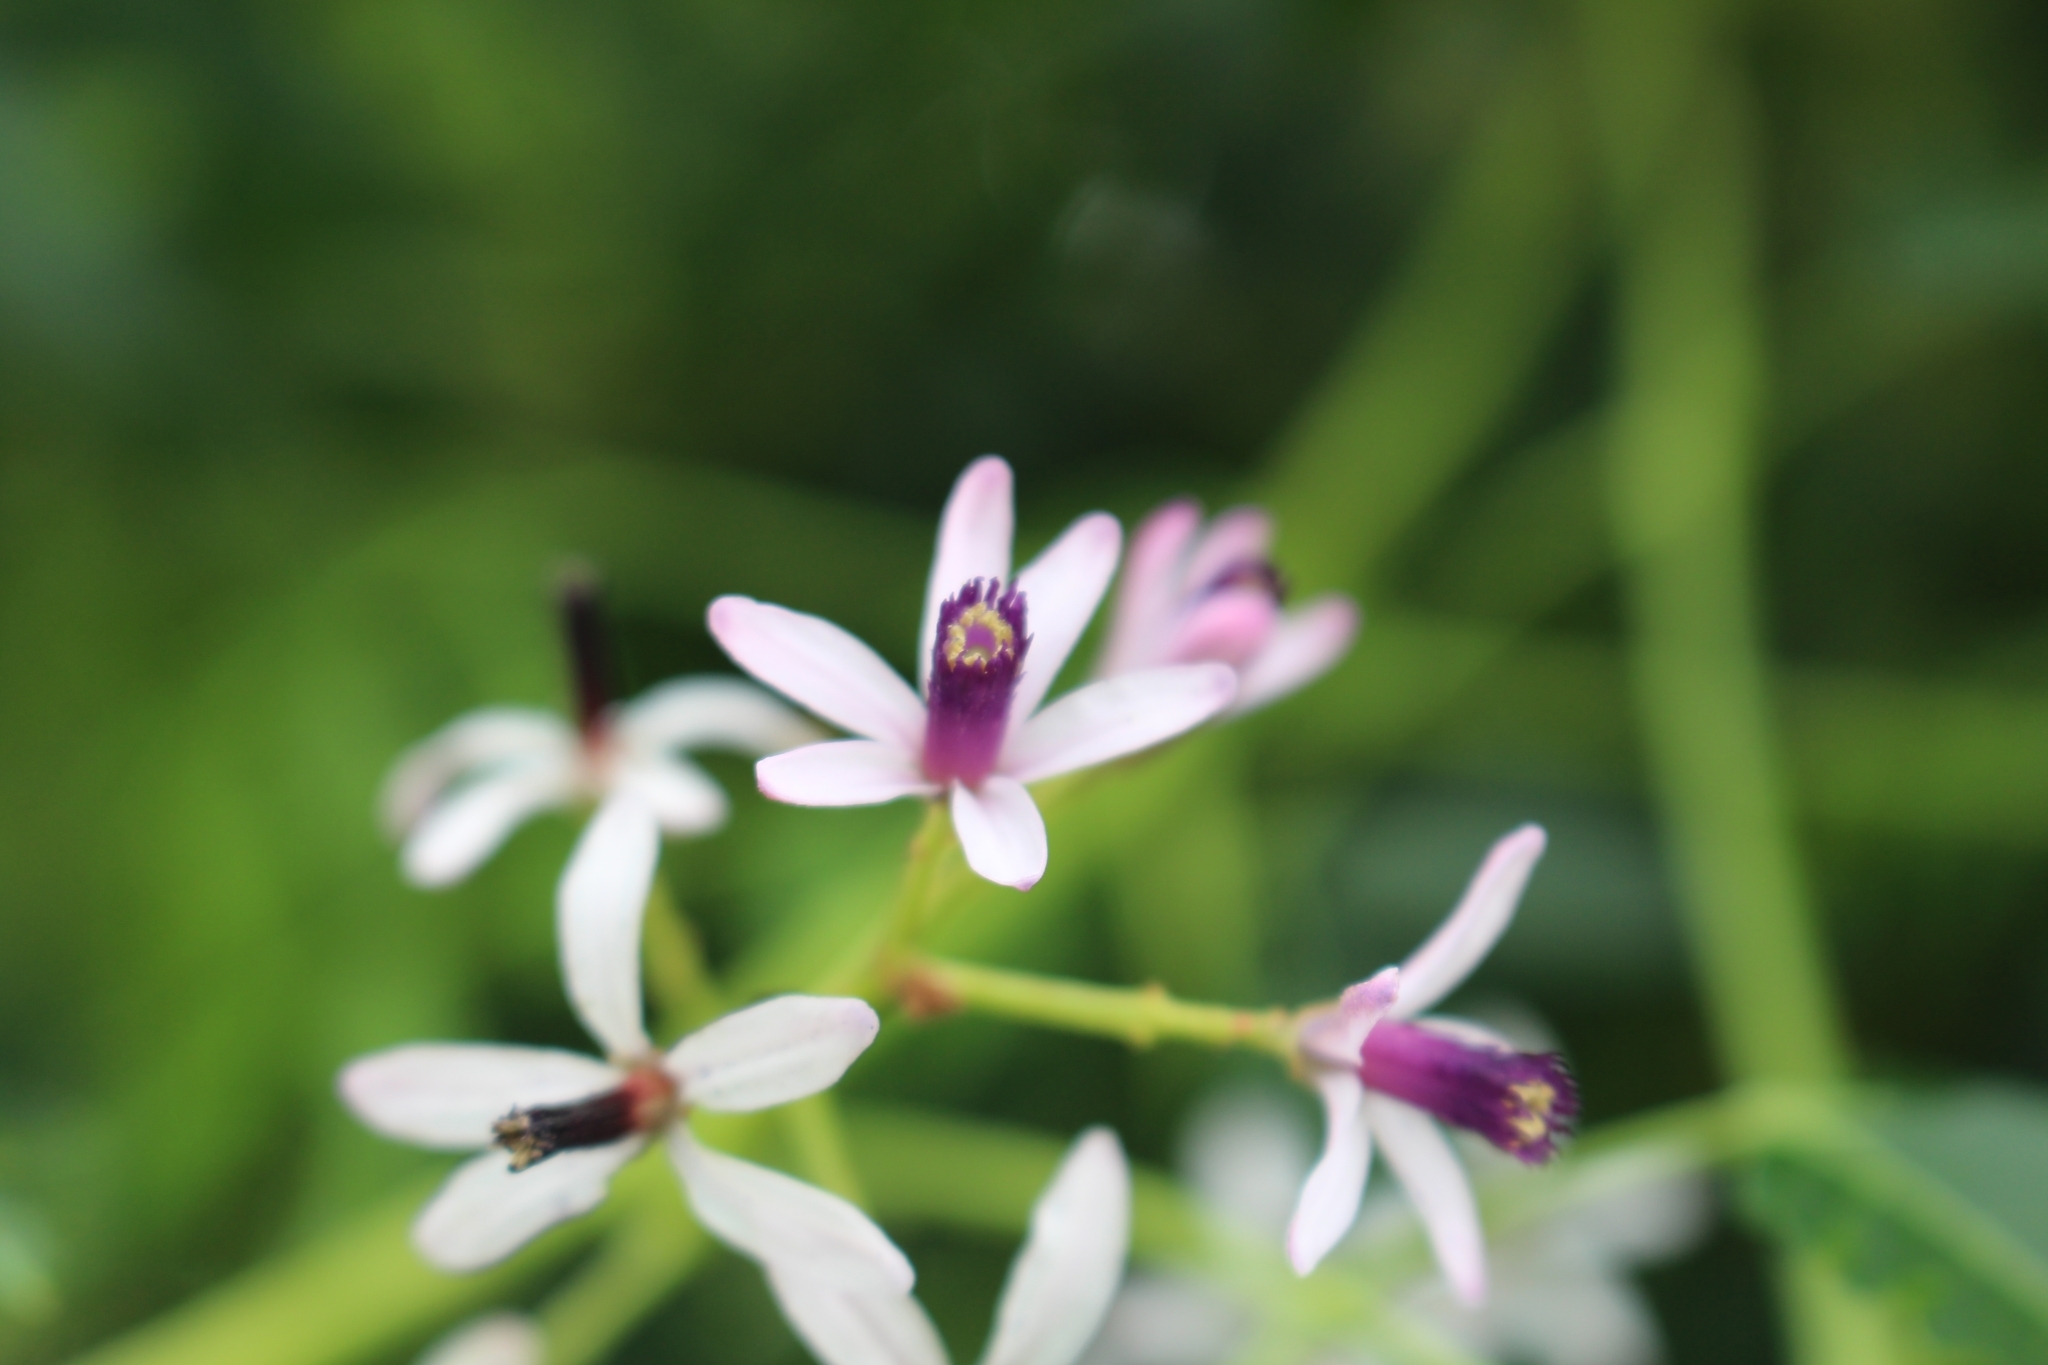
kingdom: Plantae
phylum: Tracheophyta
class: Magnoliopsida
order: Sapindales
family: Meliaceae
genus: Melia
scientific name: Melia azedarach
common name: Chinaberrytree
